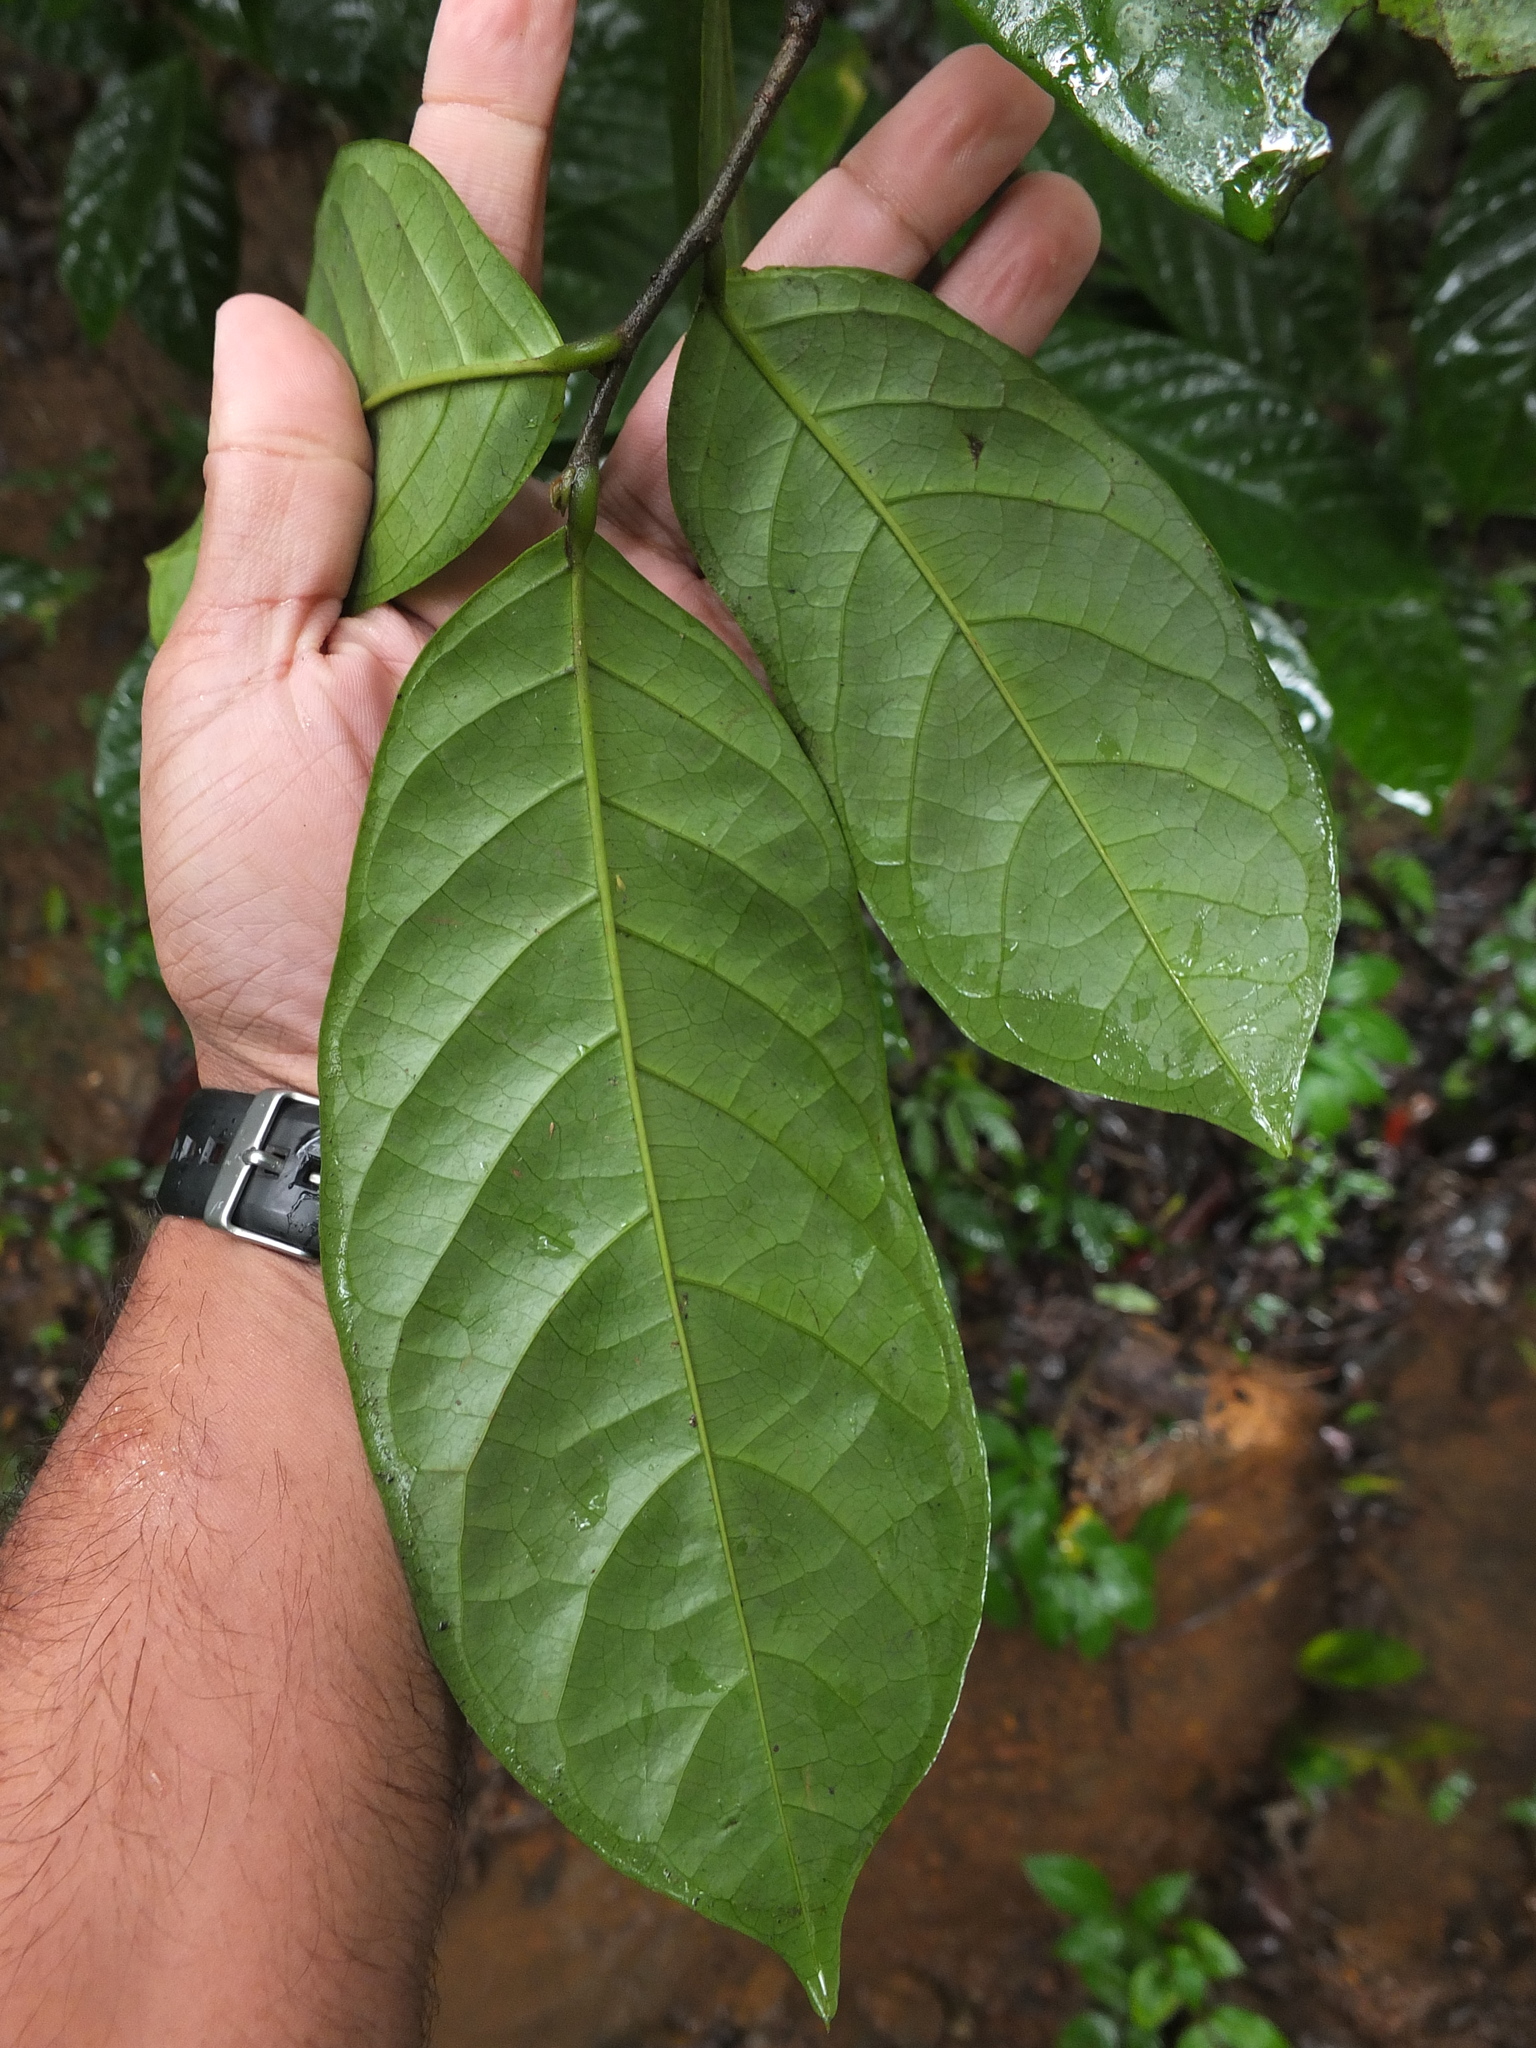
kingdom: Plantae
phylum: Tracheophyta
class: Magnoliopsida
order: Malpighiales
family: Phyllanthaceae
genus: Antidesma
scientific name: Antidesma montanum
